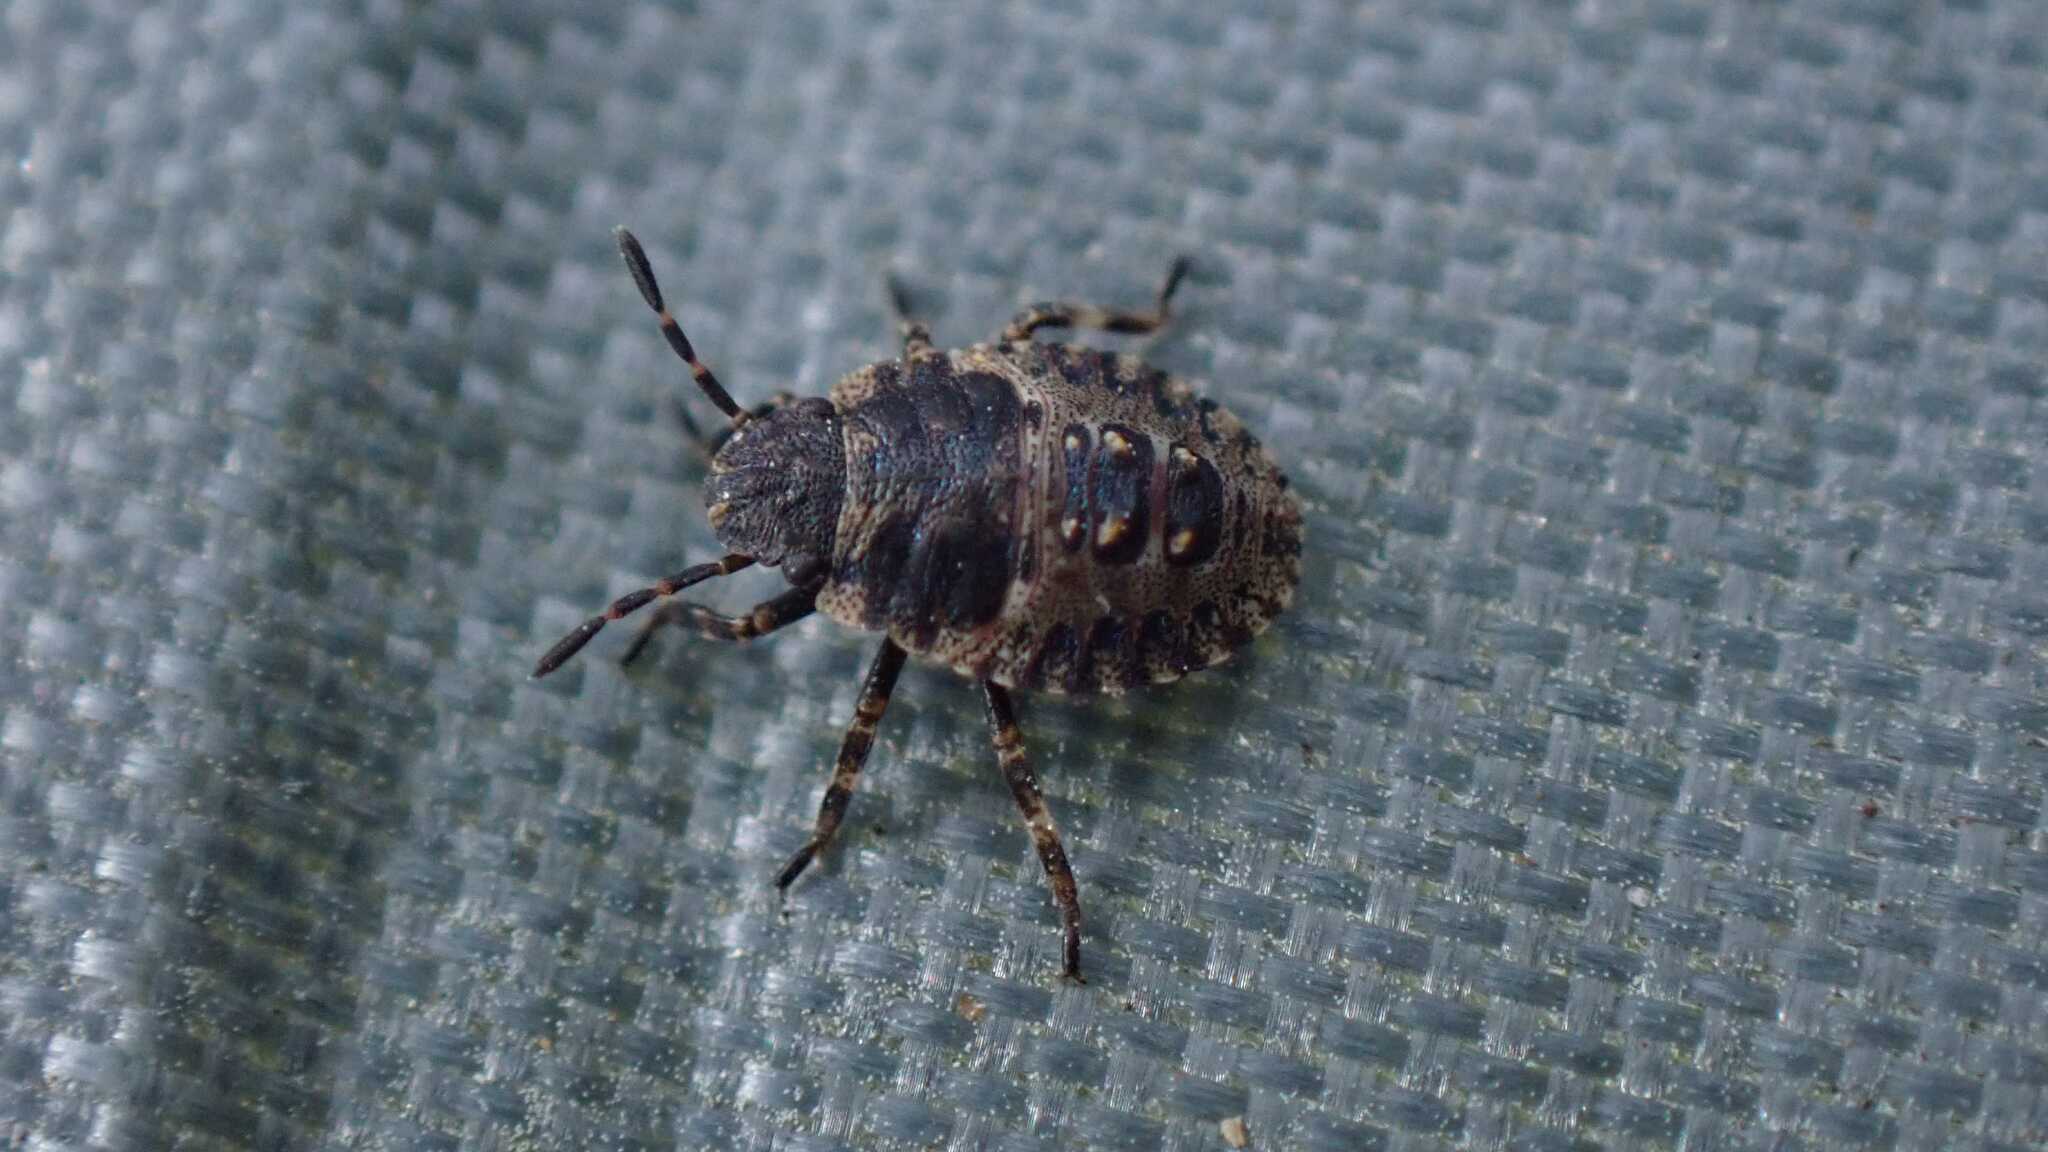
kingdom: Animalia
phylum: Arthropoda
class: Insecta
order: Hemiptera
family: Pentatomidae
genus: Pentatoma
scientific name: Pentatoma rufipes
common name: Forest bug
